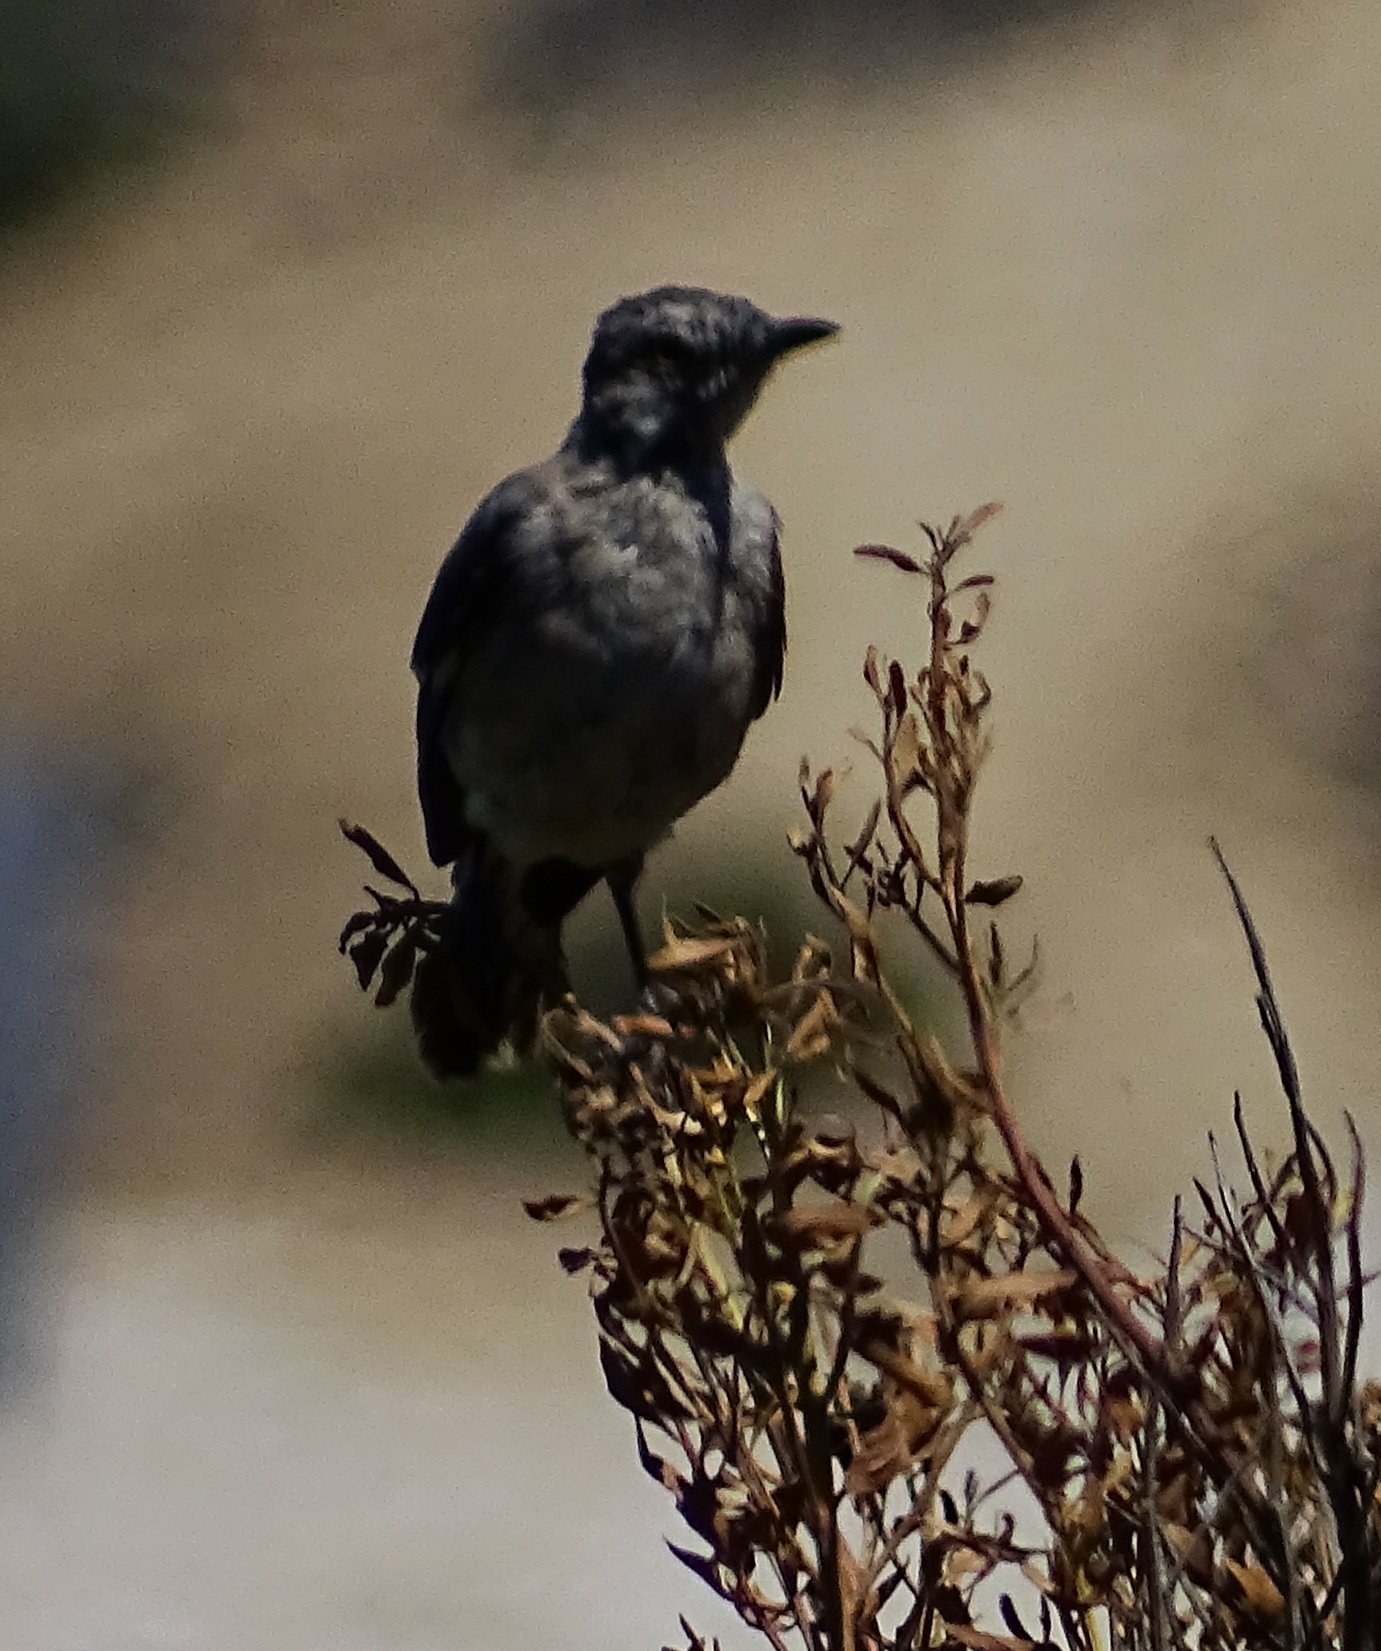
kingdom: Animalia
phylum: Chordata
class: Aves
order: Passeriformes
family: Mimidae
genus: Oreoscoptes
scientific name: Oreoscoptes montanus
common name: Sage thrasher
